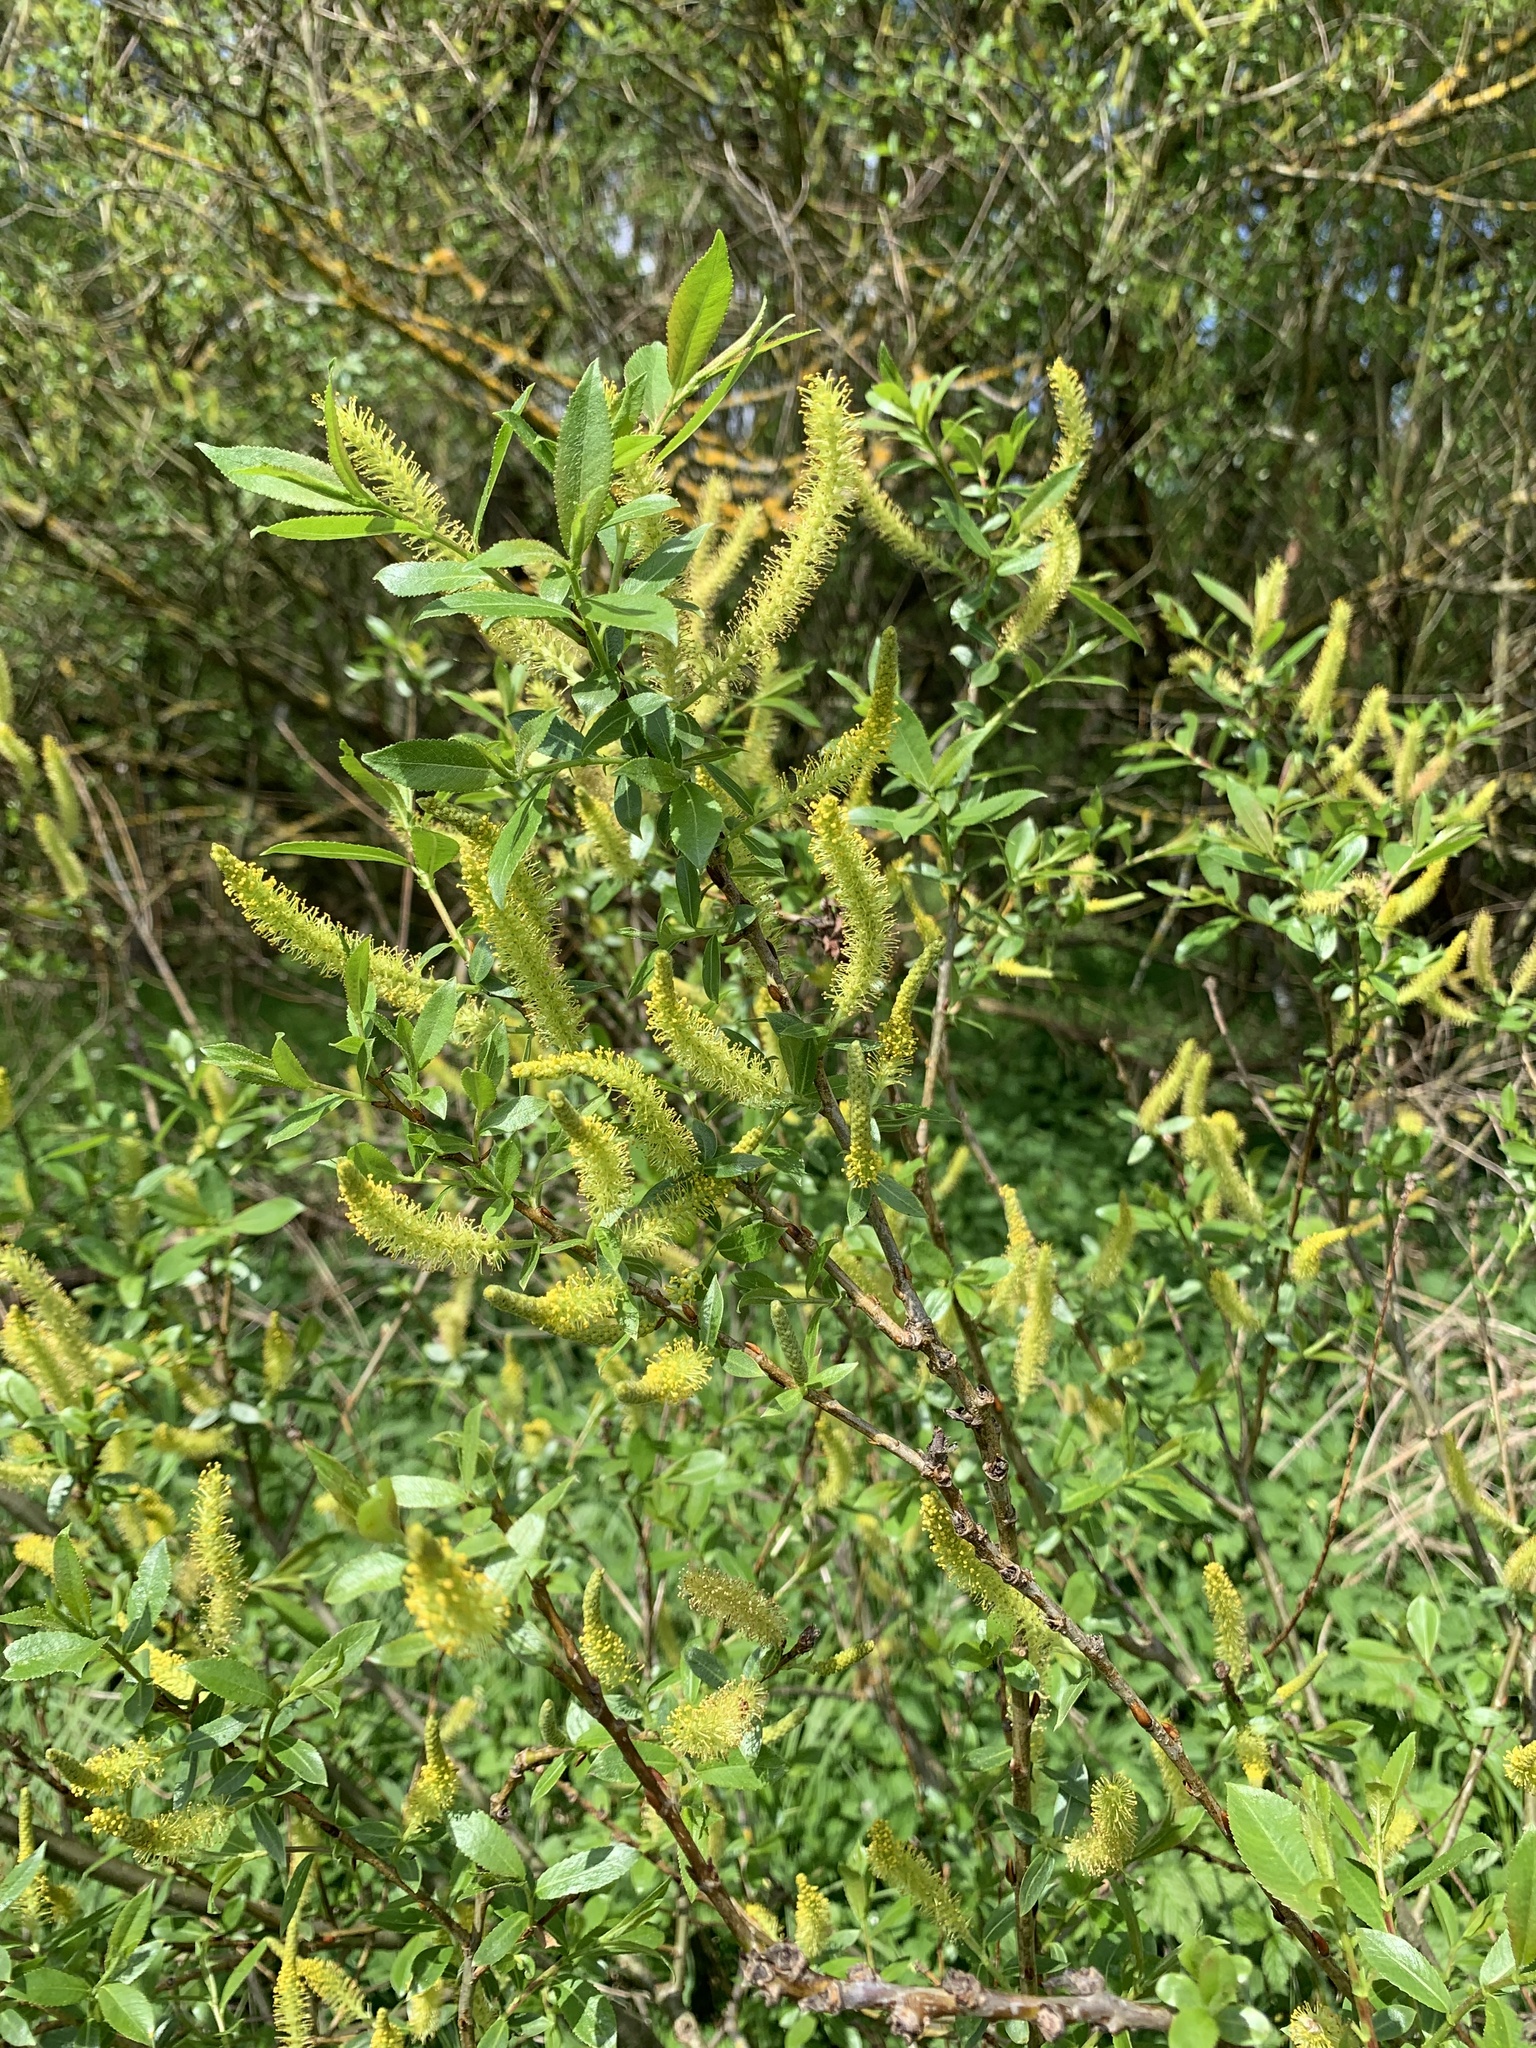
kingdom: Plantae
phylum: Tracheophyta
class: Magnoliopsida
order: Malpighiales
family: Salicaceae
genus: Salix
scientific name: Salix triandra
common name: Almond willow
